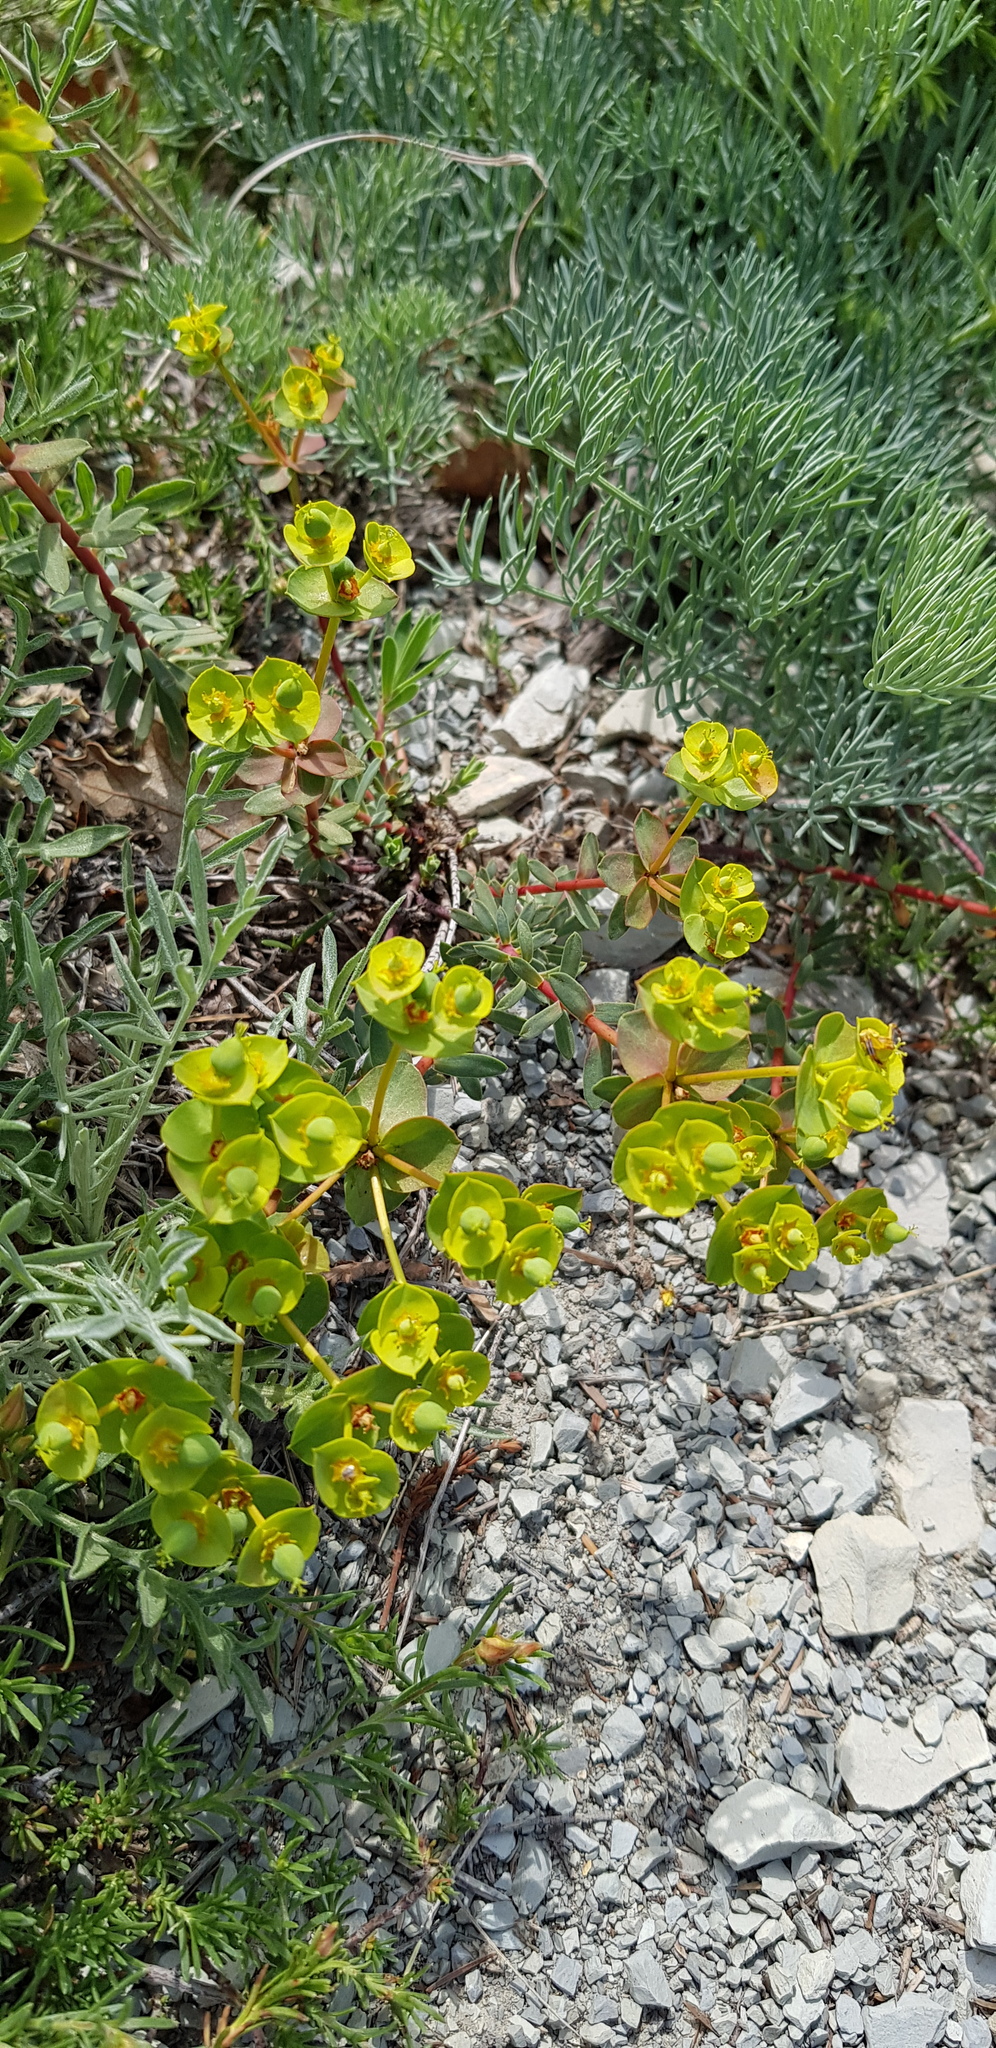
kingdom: Plantae
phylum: Tracheophyta
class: Magnoliopsida
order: Malpighiales
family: Euphorbiaceae
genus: Euphorbia
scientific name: Euphorbia petrophila
